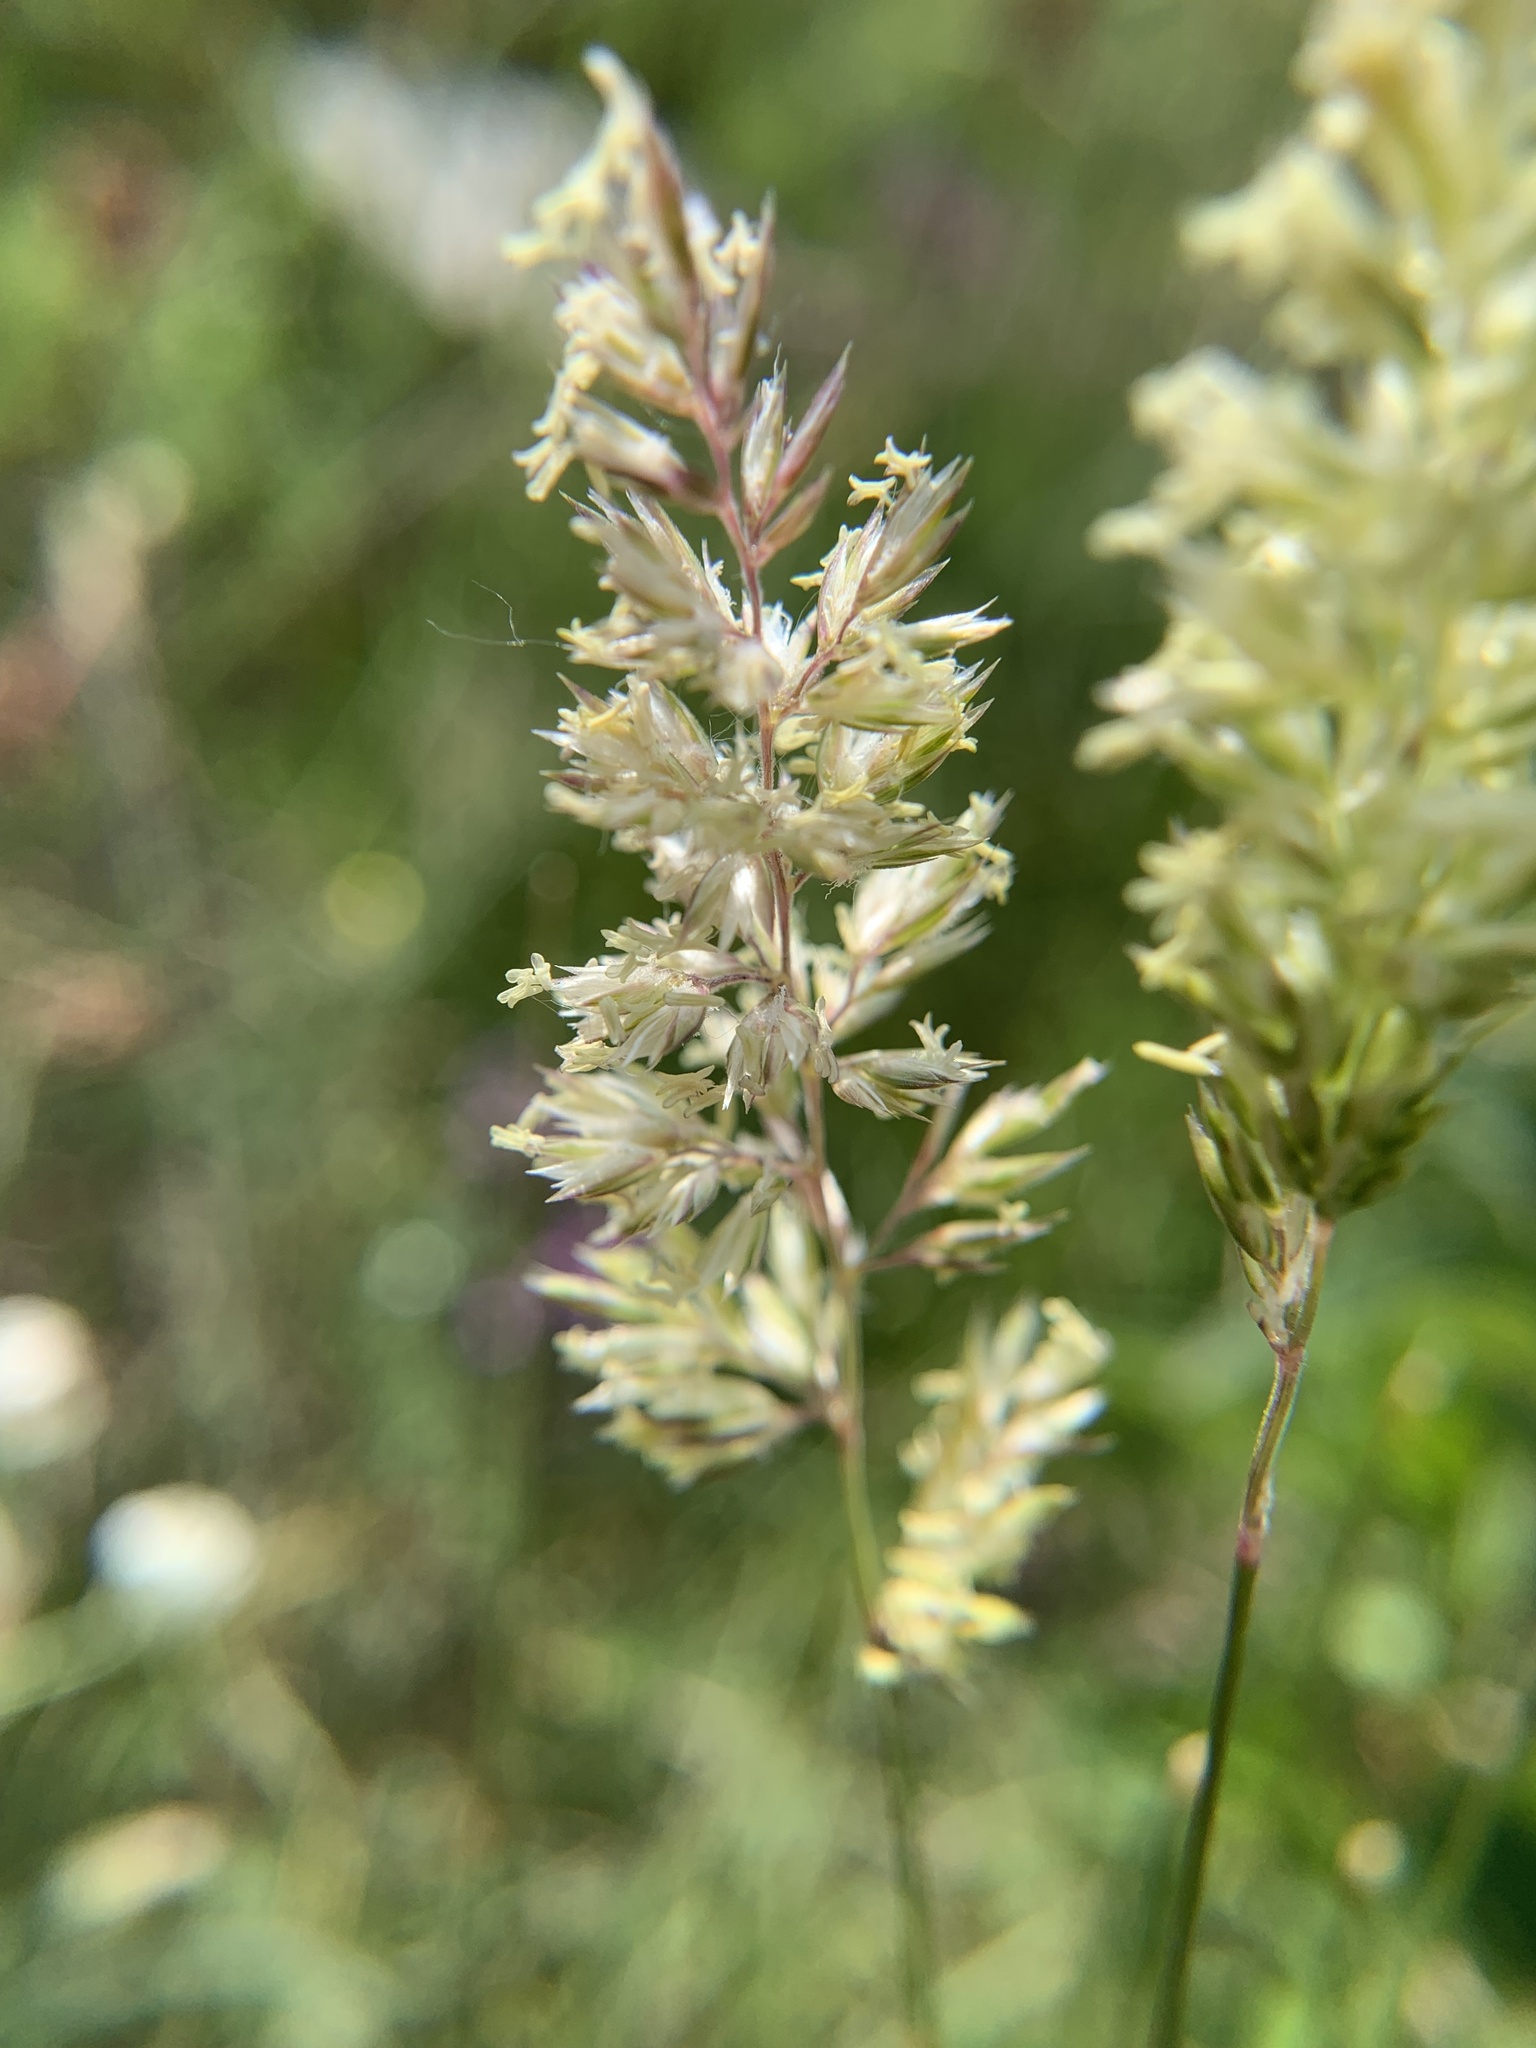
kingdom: Plantae
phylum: Tracheophyta
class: Liliopsida
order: Poales
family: Poaceae
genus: Koeleria
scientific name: Koeleria macrantha
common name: Crested hair-grass
